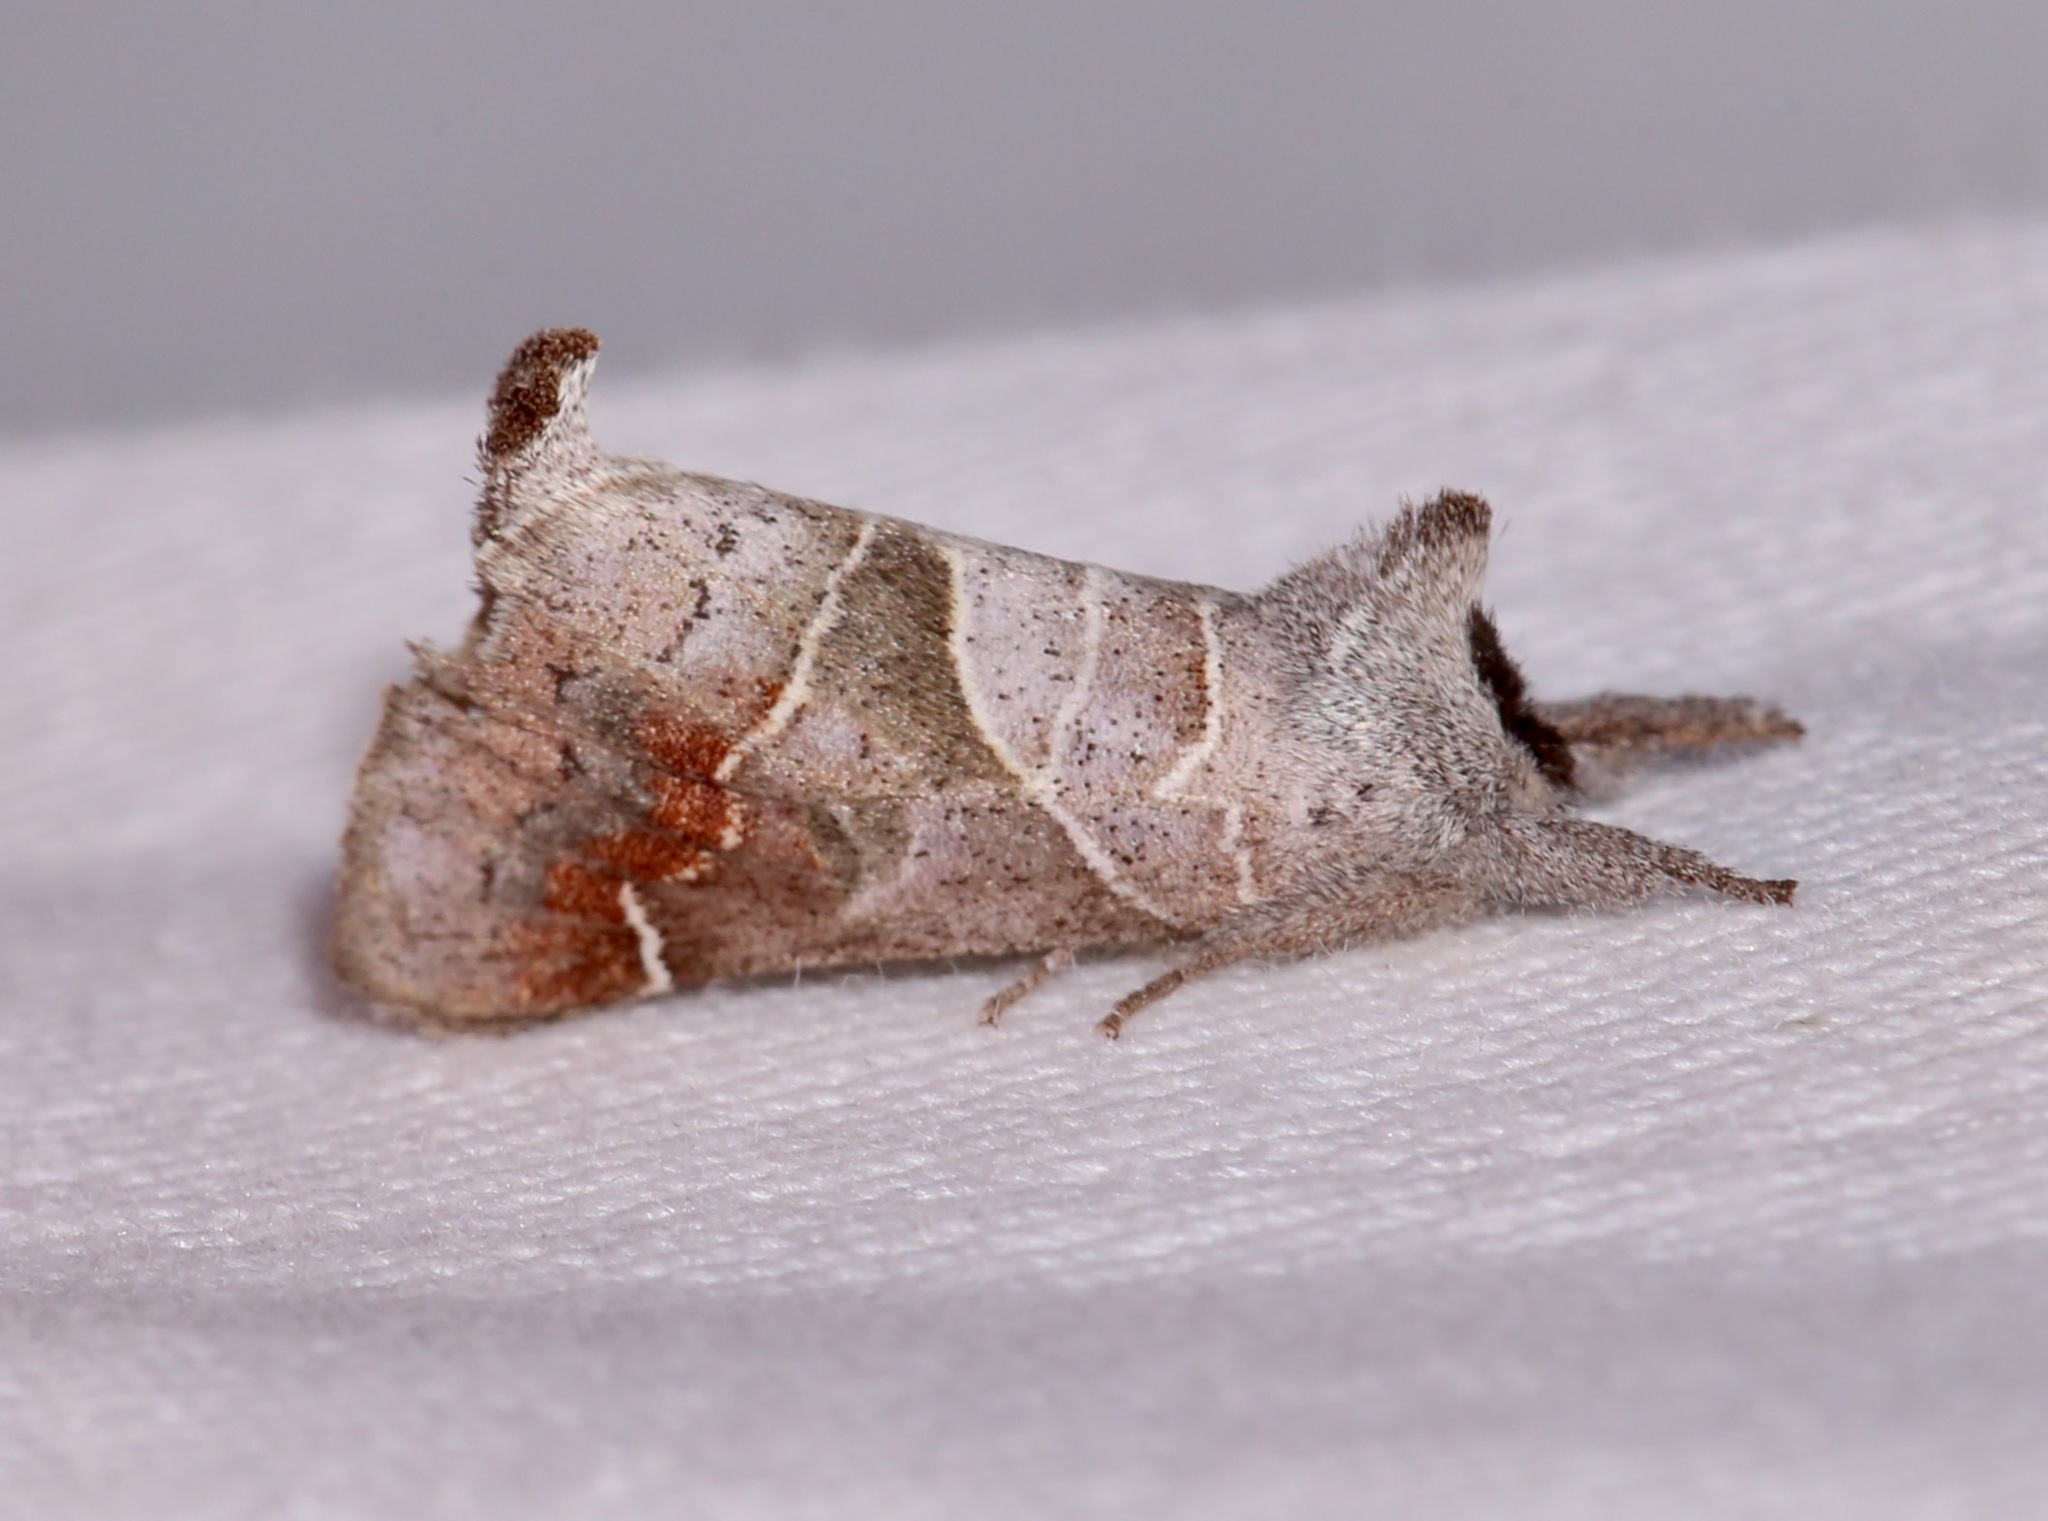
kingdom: Animalia
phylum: Arthropoda
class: Insecta
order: Lepidoptera
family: Notodontidae
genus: Clostera
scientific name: Clostera apicalis
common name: Apical prominent
